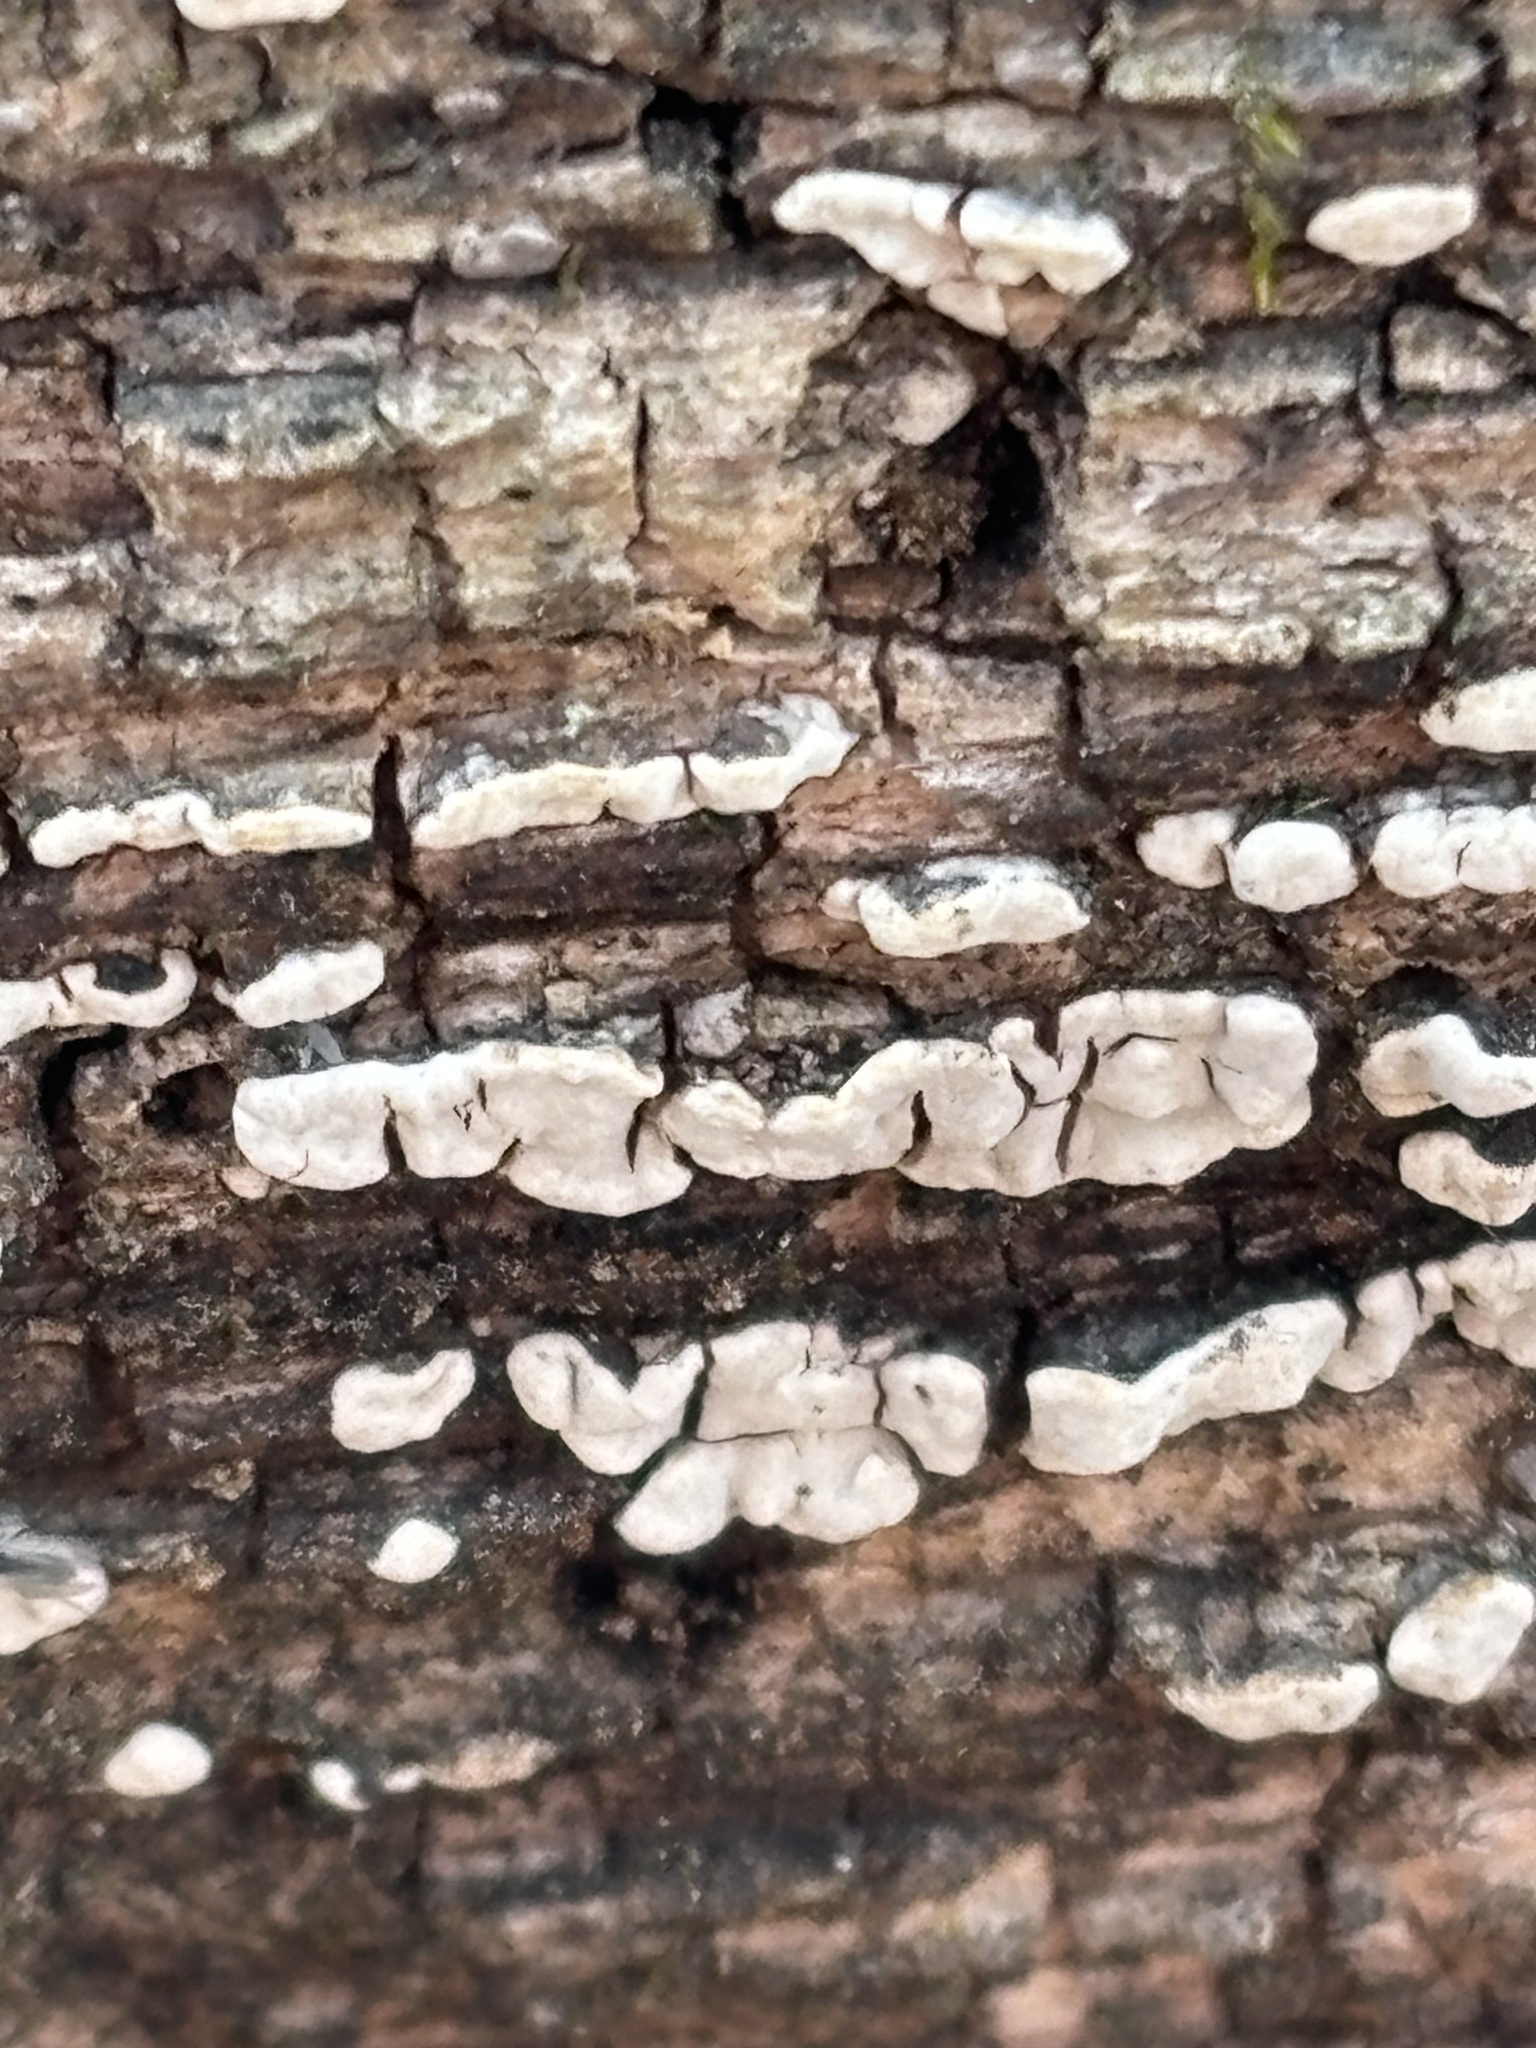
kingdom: Fungi
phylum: Basidiomycota
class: Agaricomycetes
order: Russulales
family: Stereaceae
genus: Xylobolus
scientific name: Xylobolus frustulatus
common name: Ceramic parchment
